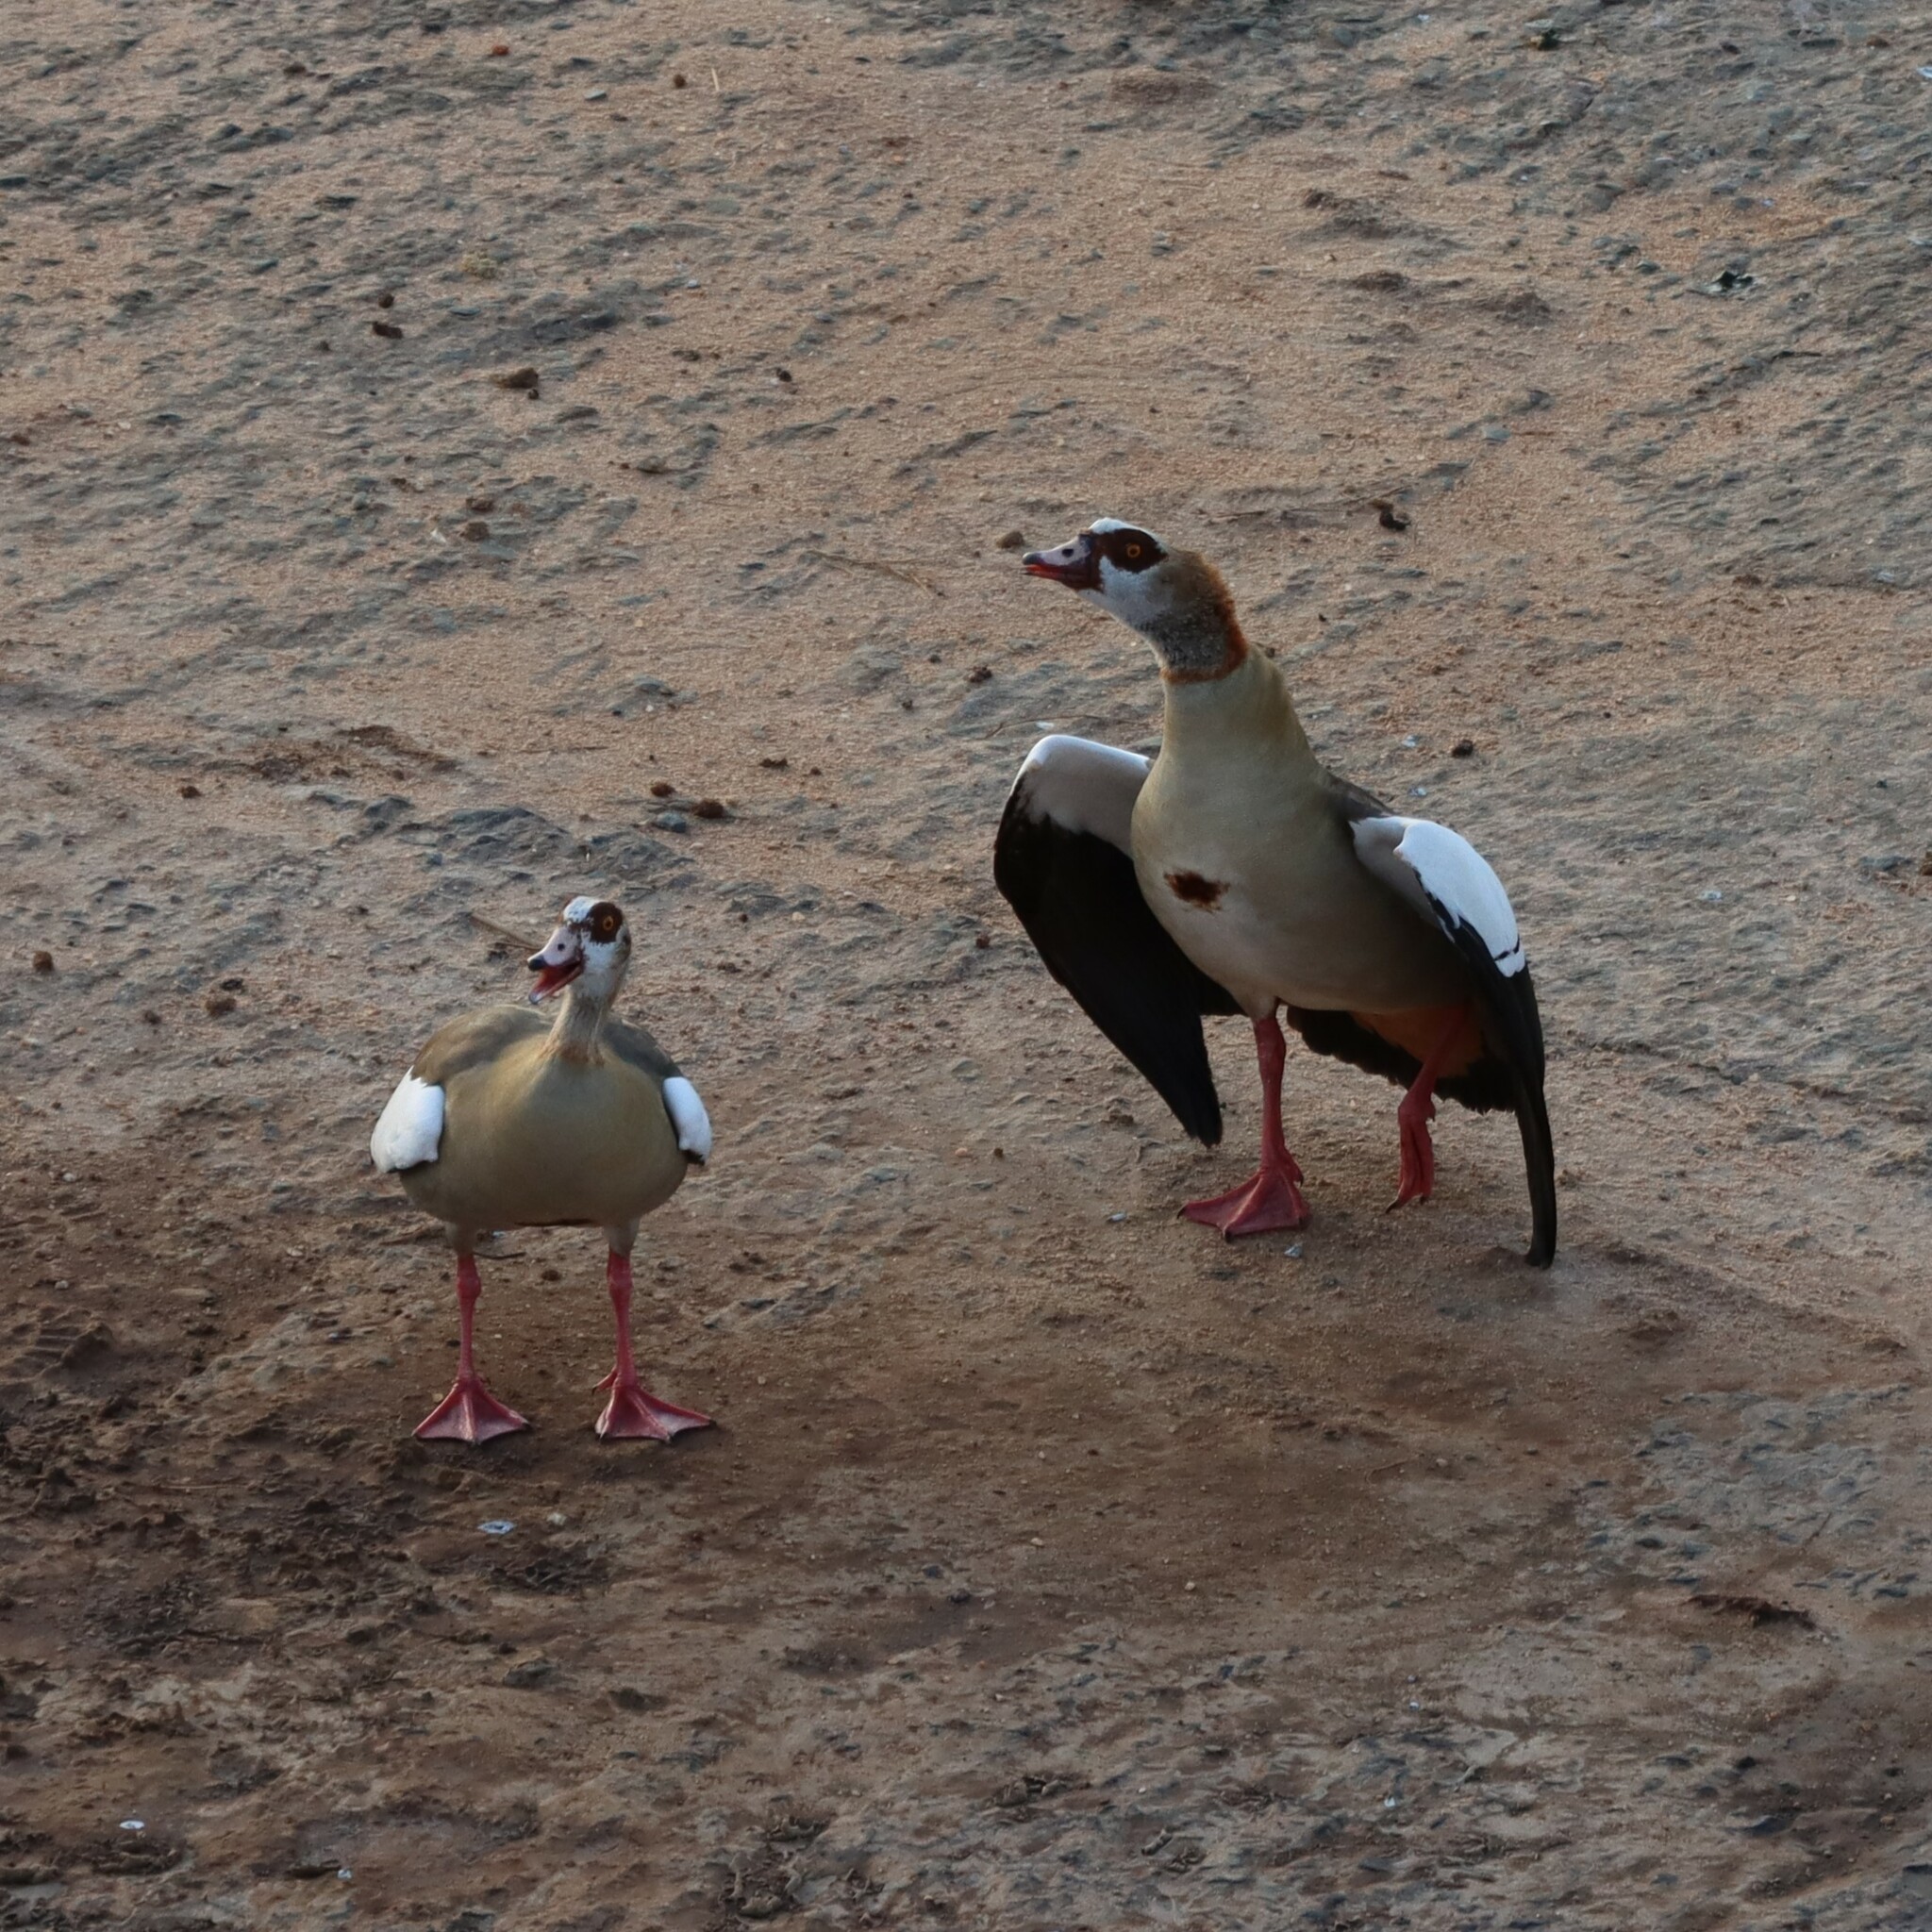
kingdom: Animalia
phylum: Chordata
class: Aves
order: Anseriformes
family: Anatidae
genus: Alopochen
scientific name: Alopochen aegyptiaca
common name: Egyptian goose
